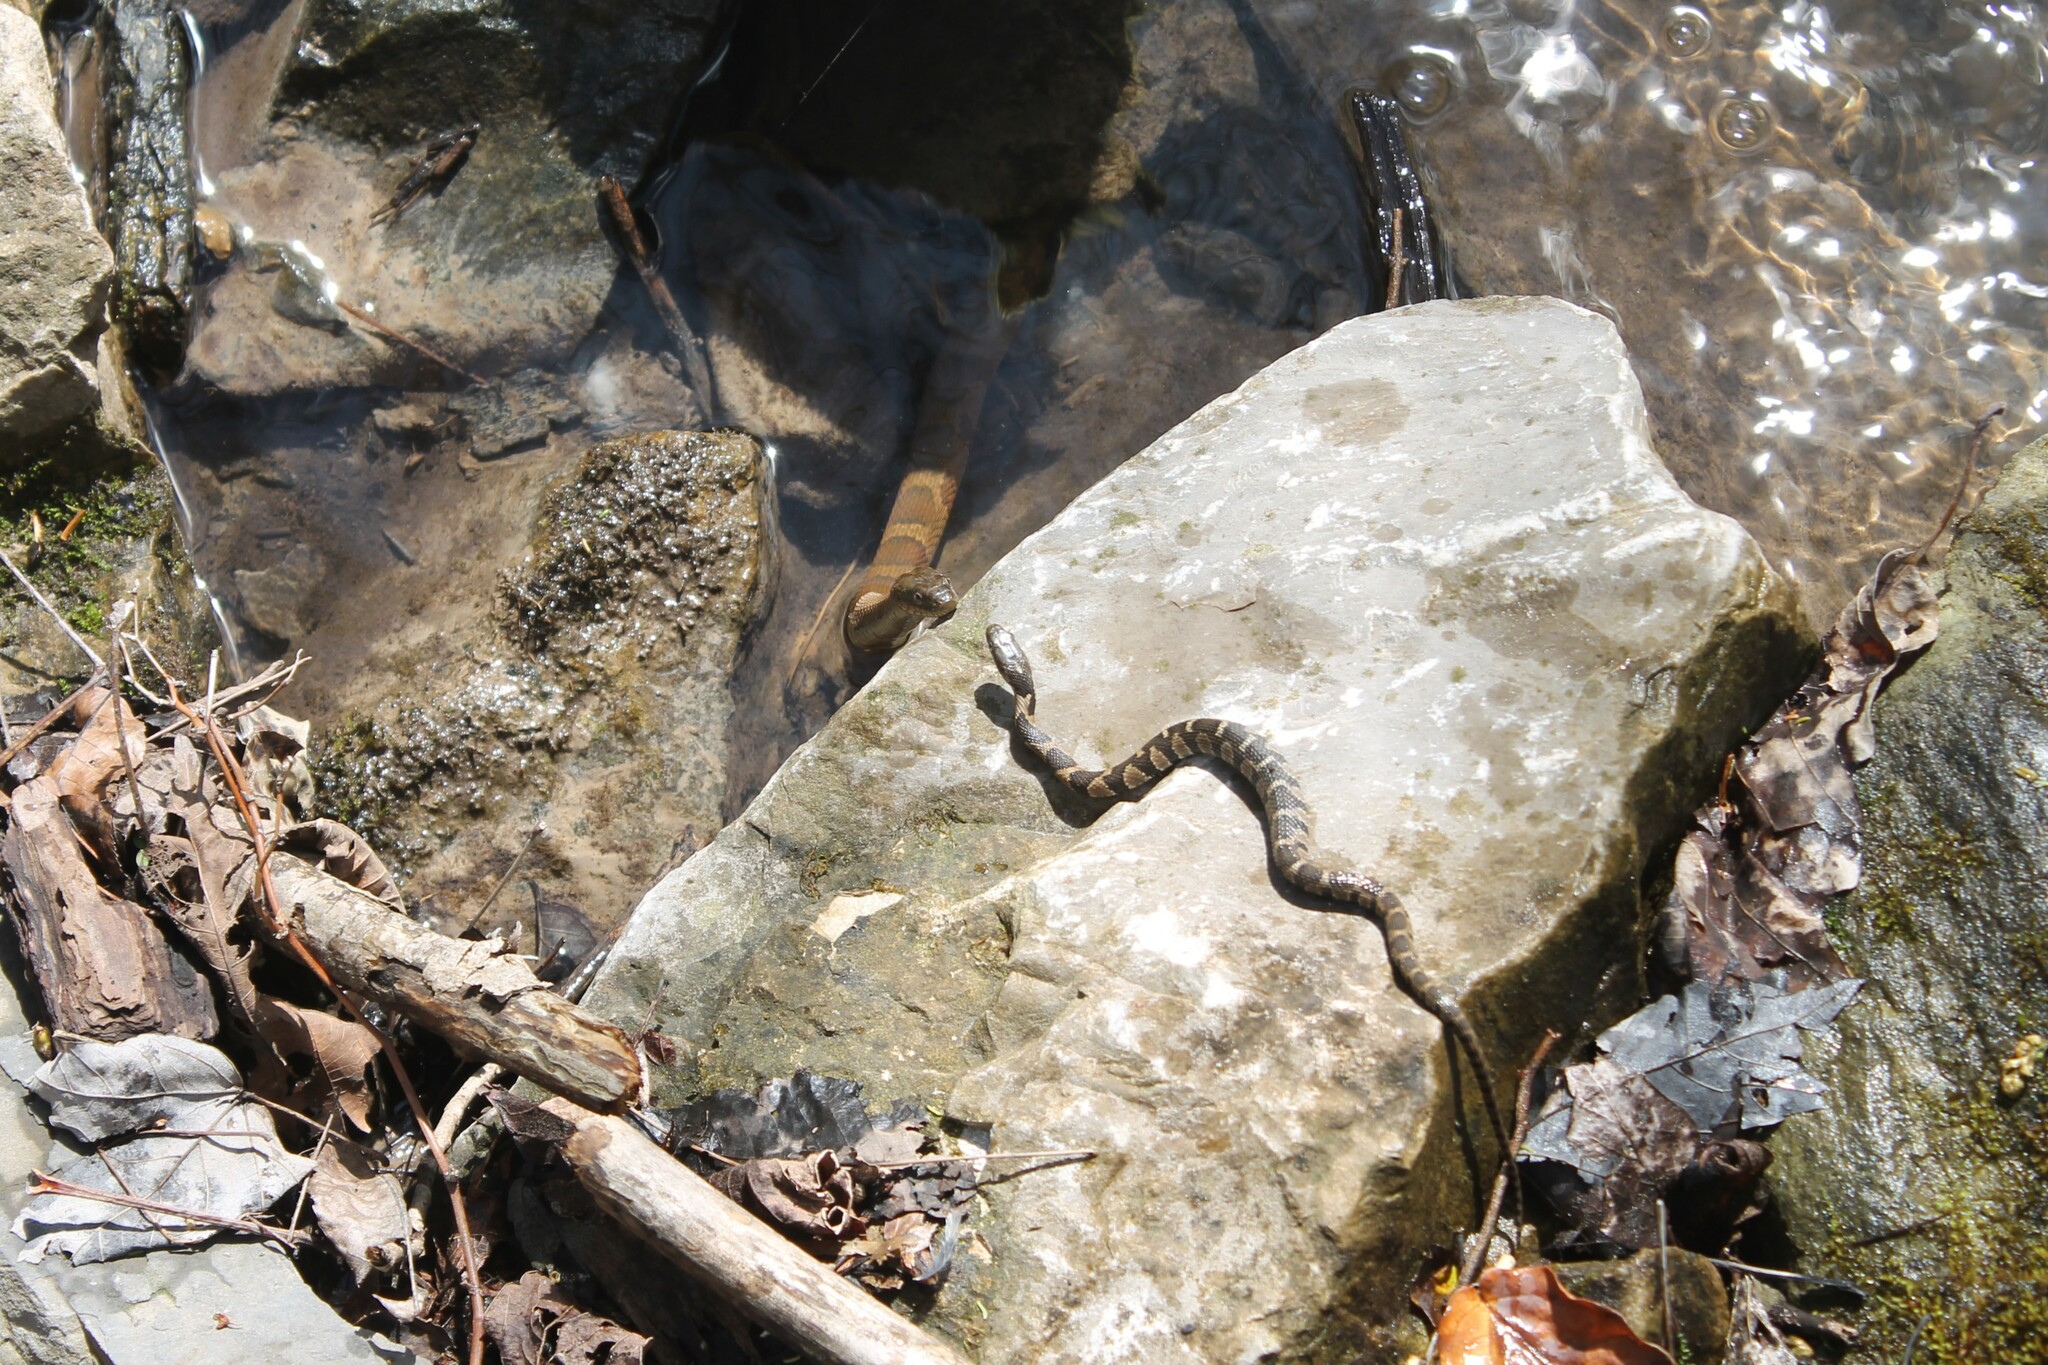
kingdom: Animalia
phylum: Chordata
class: Squamata
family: Colubridae
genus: Nerodia
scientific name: Nerodia sipedon
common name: Northern water snake
